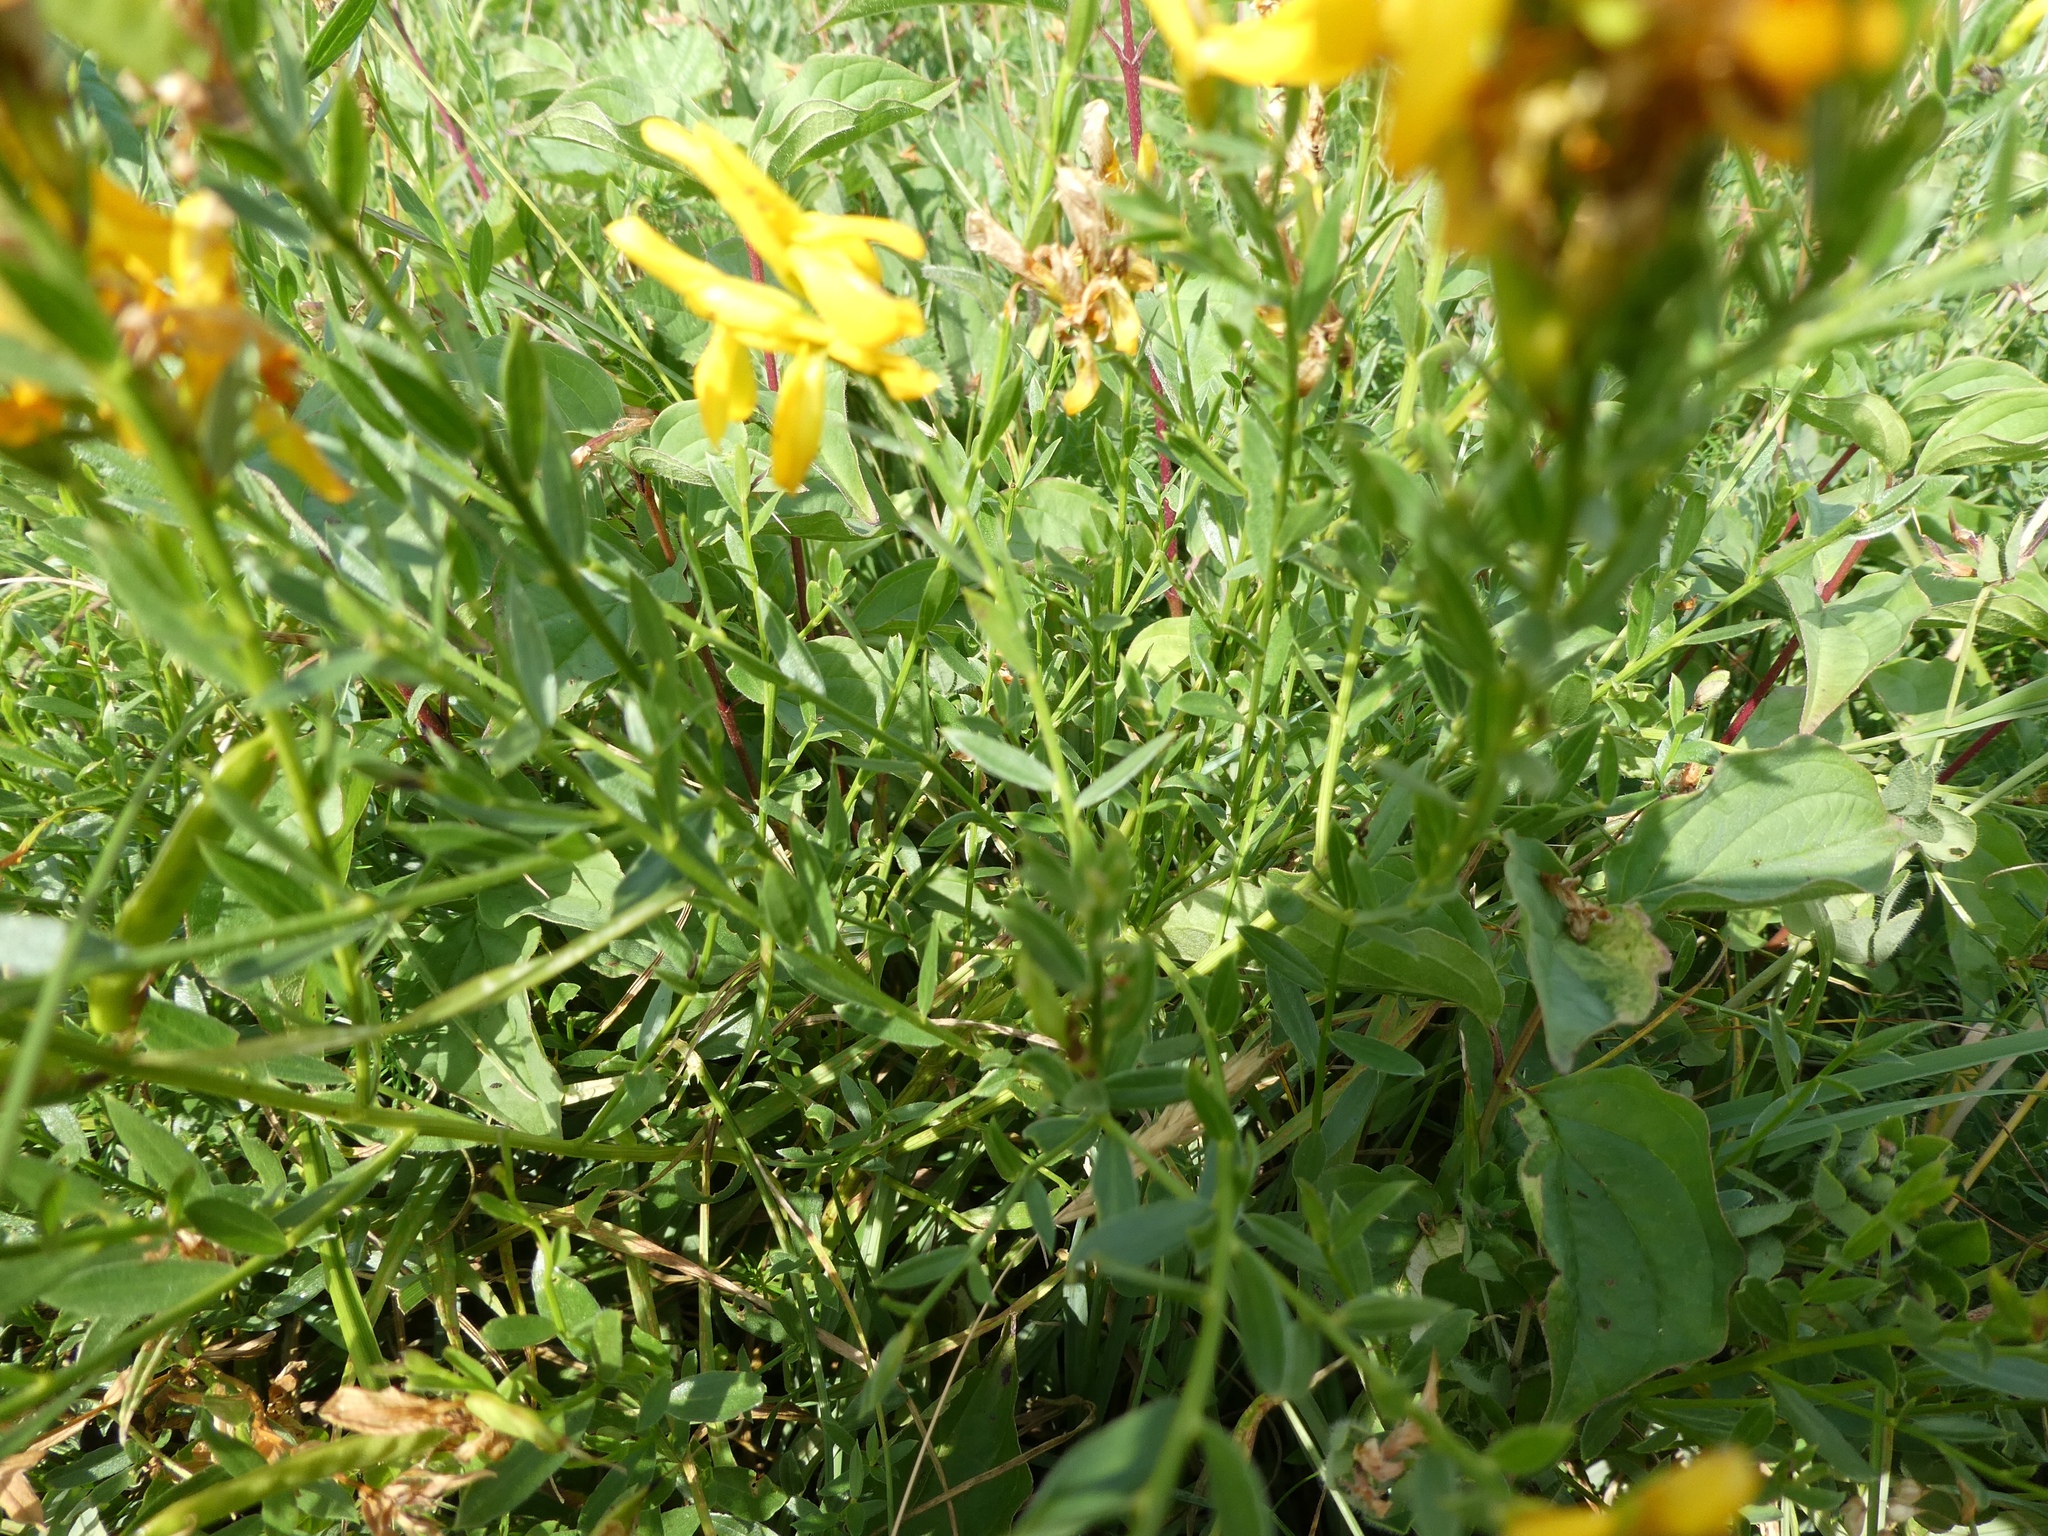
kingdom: Plantae
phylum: Tracheophyta
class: Magnoliopsida
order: Fabales
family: Fabaceae
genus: Genista
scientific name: Genista tinctoria
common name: Dyer's greenweed
